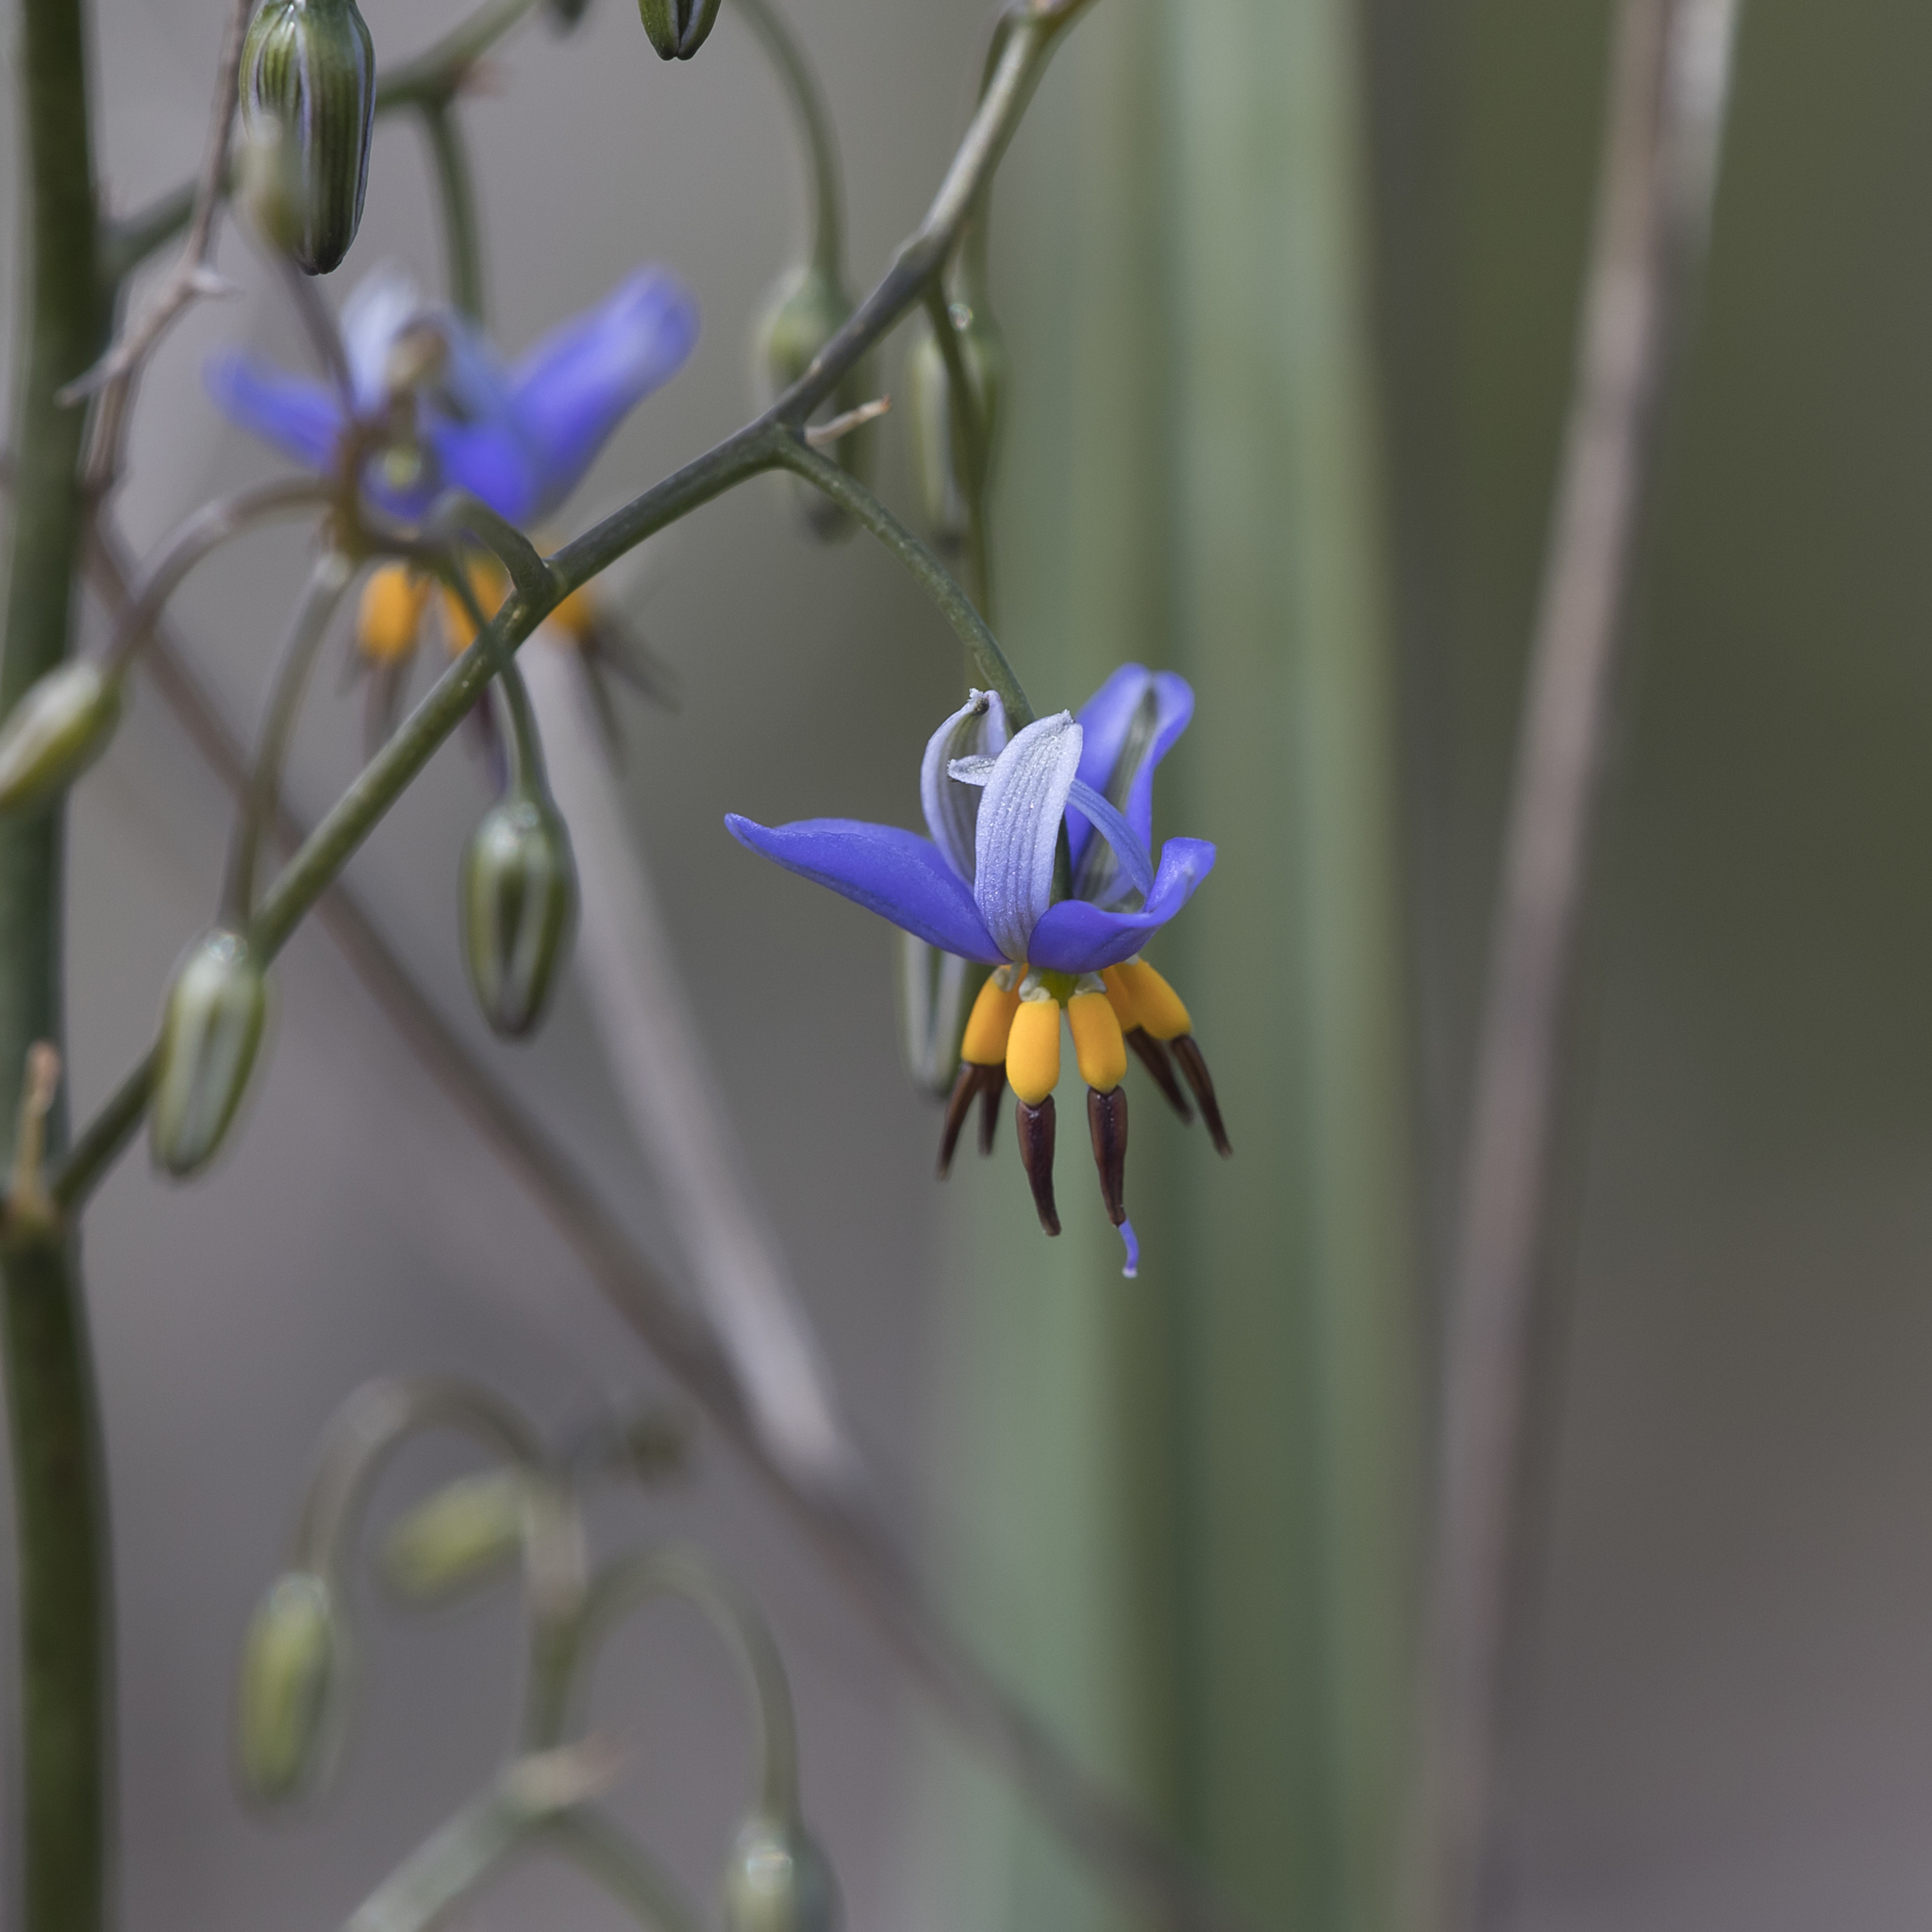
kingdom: Plantae
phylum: Tracheophyta
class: Liliopsida
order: Asparagales
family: Asphodelaceae
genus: Dianella
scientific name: Dianella revoluta
